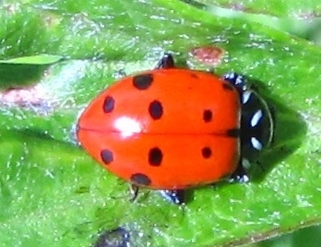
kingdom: Animalia
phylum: Arthropoda
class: Insecta
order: Coleoptera
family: Coccinellidae
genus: Hippodamia
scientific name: Hippodamia convergens
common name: Convergent lady beetle
